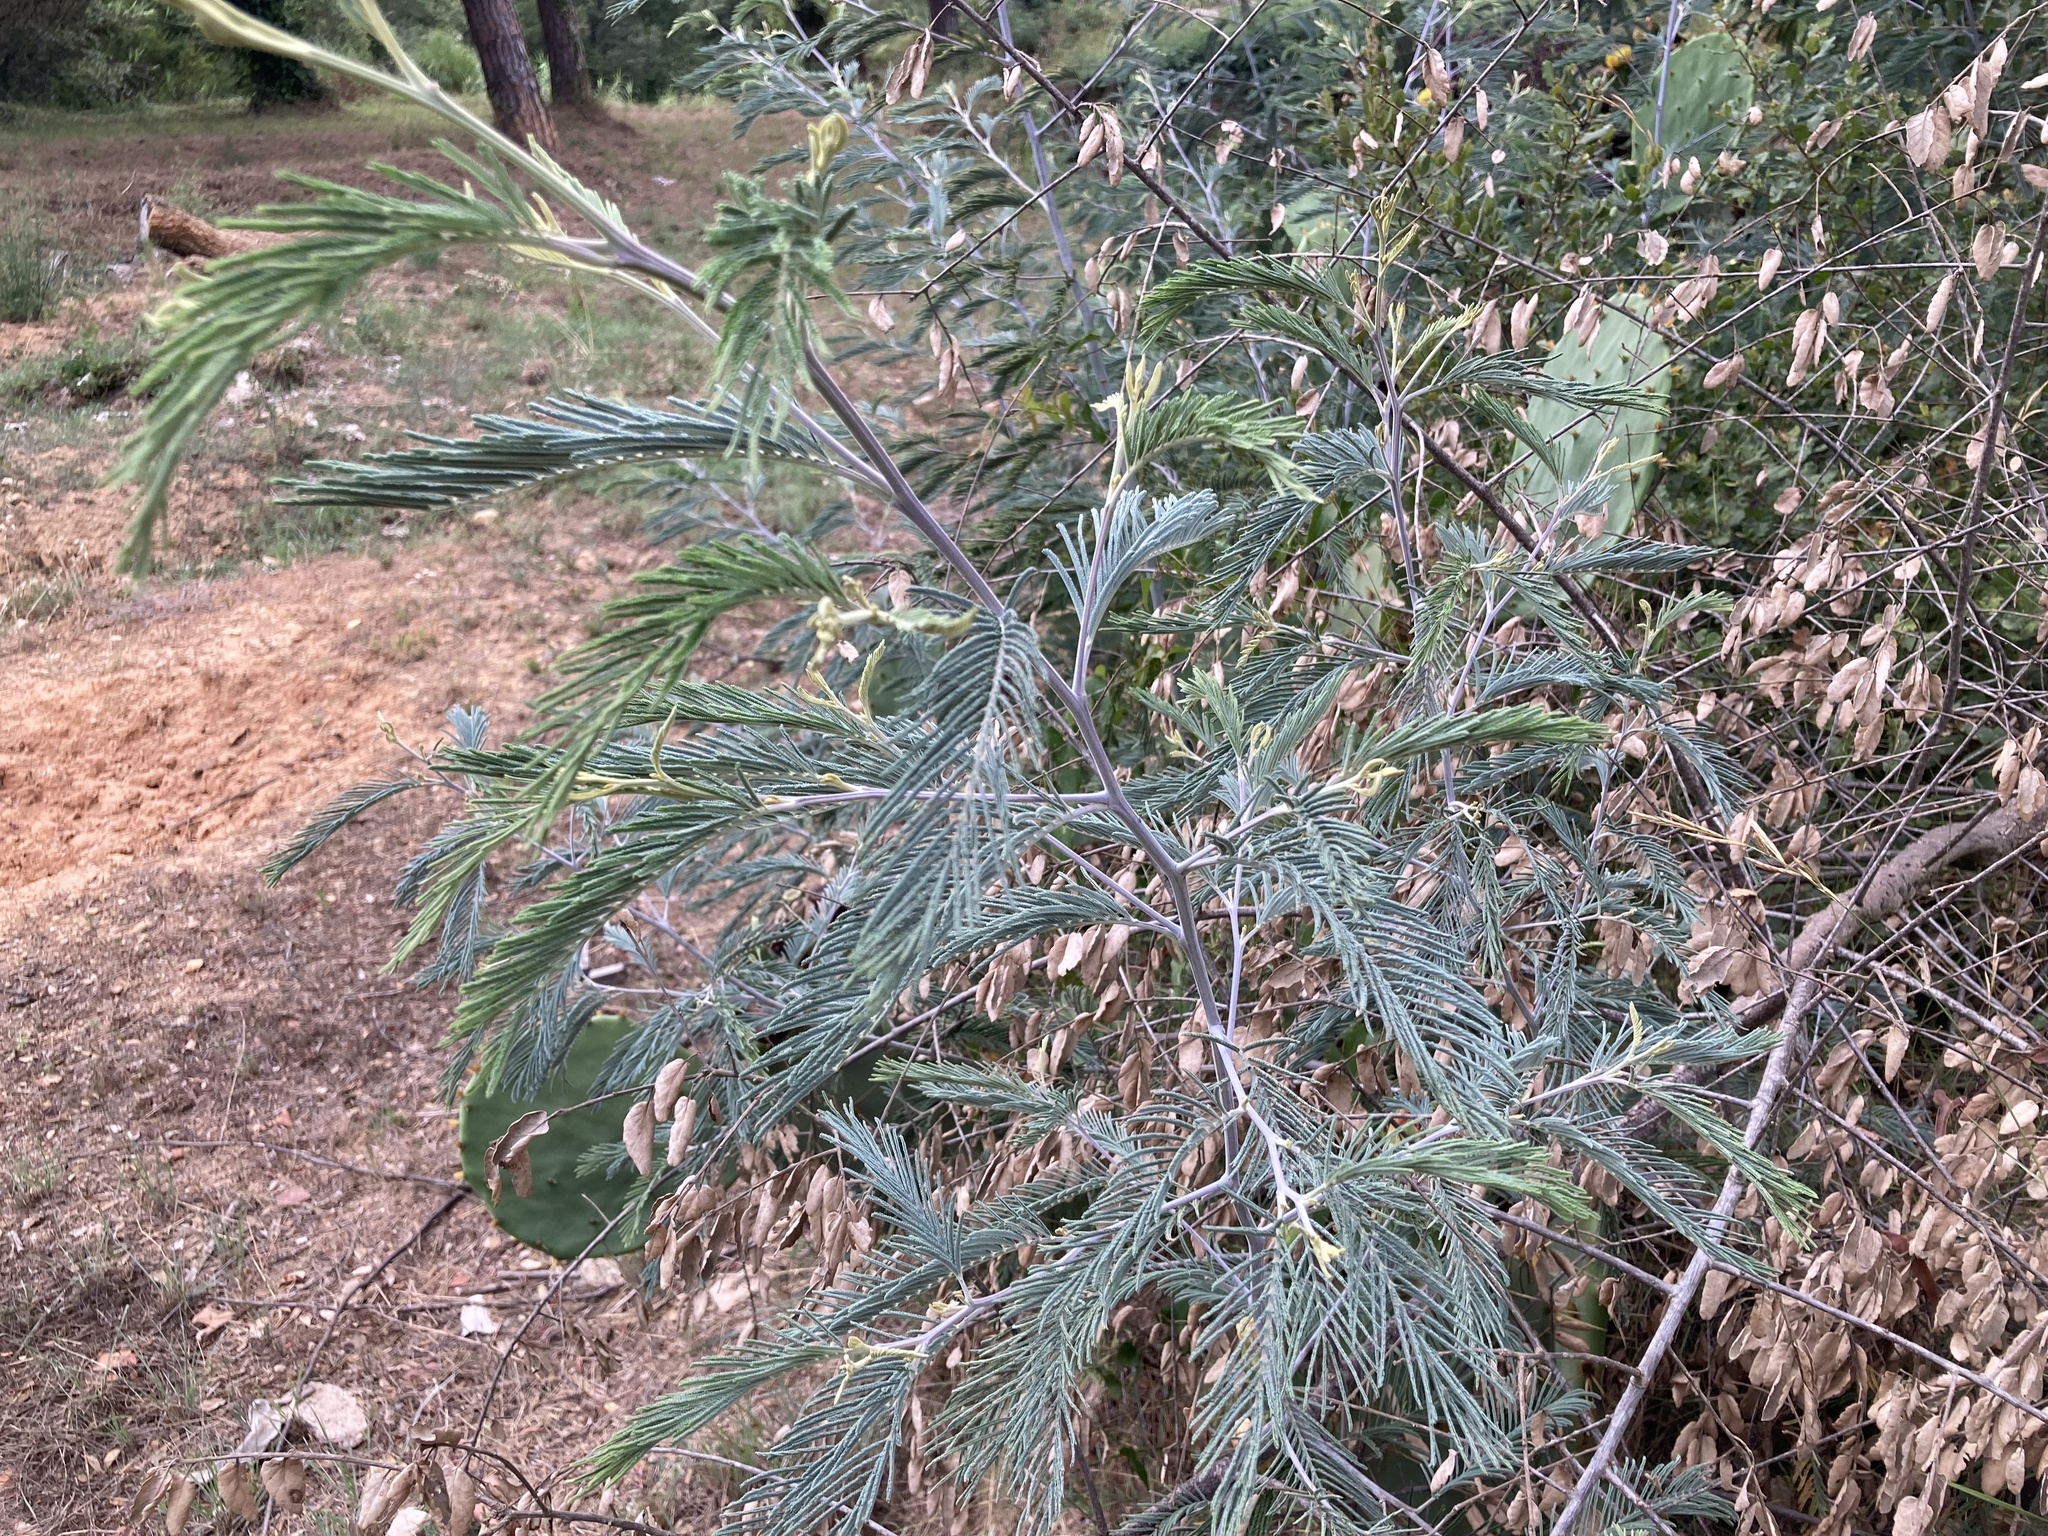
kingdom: Plantae
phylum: Tracheophyta
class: Magnoliopsida
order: Fabales
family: Fabaceae
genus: Acacia
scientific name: Acacia dealbata
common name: Silver wattle
